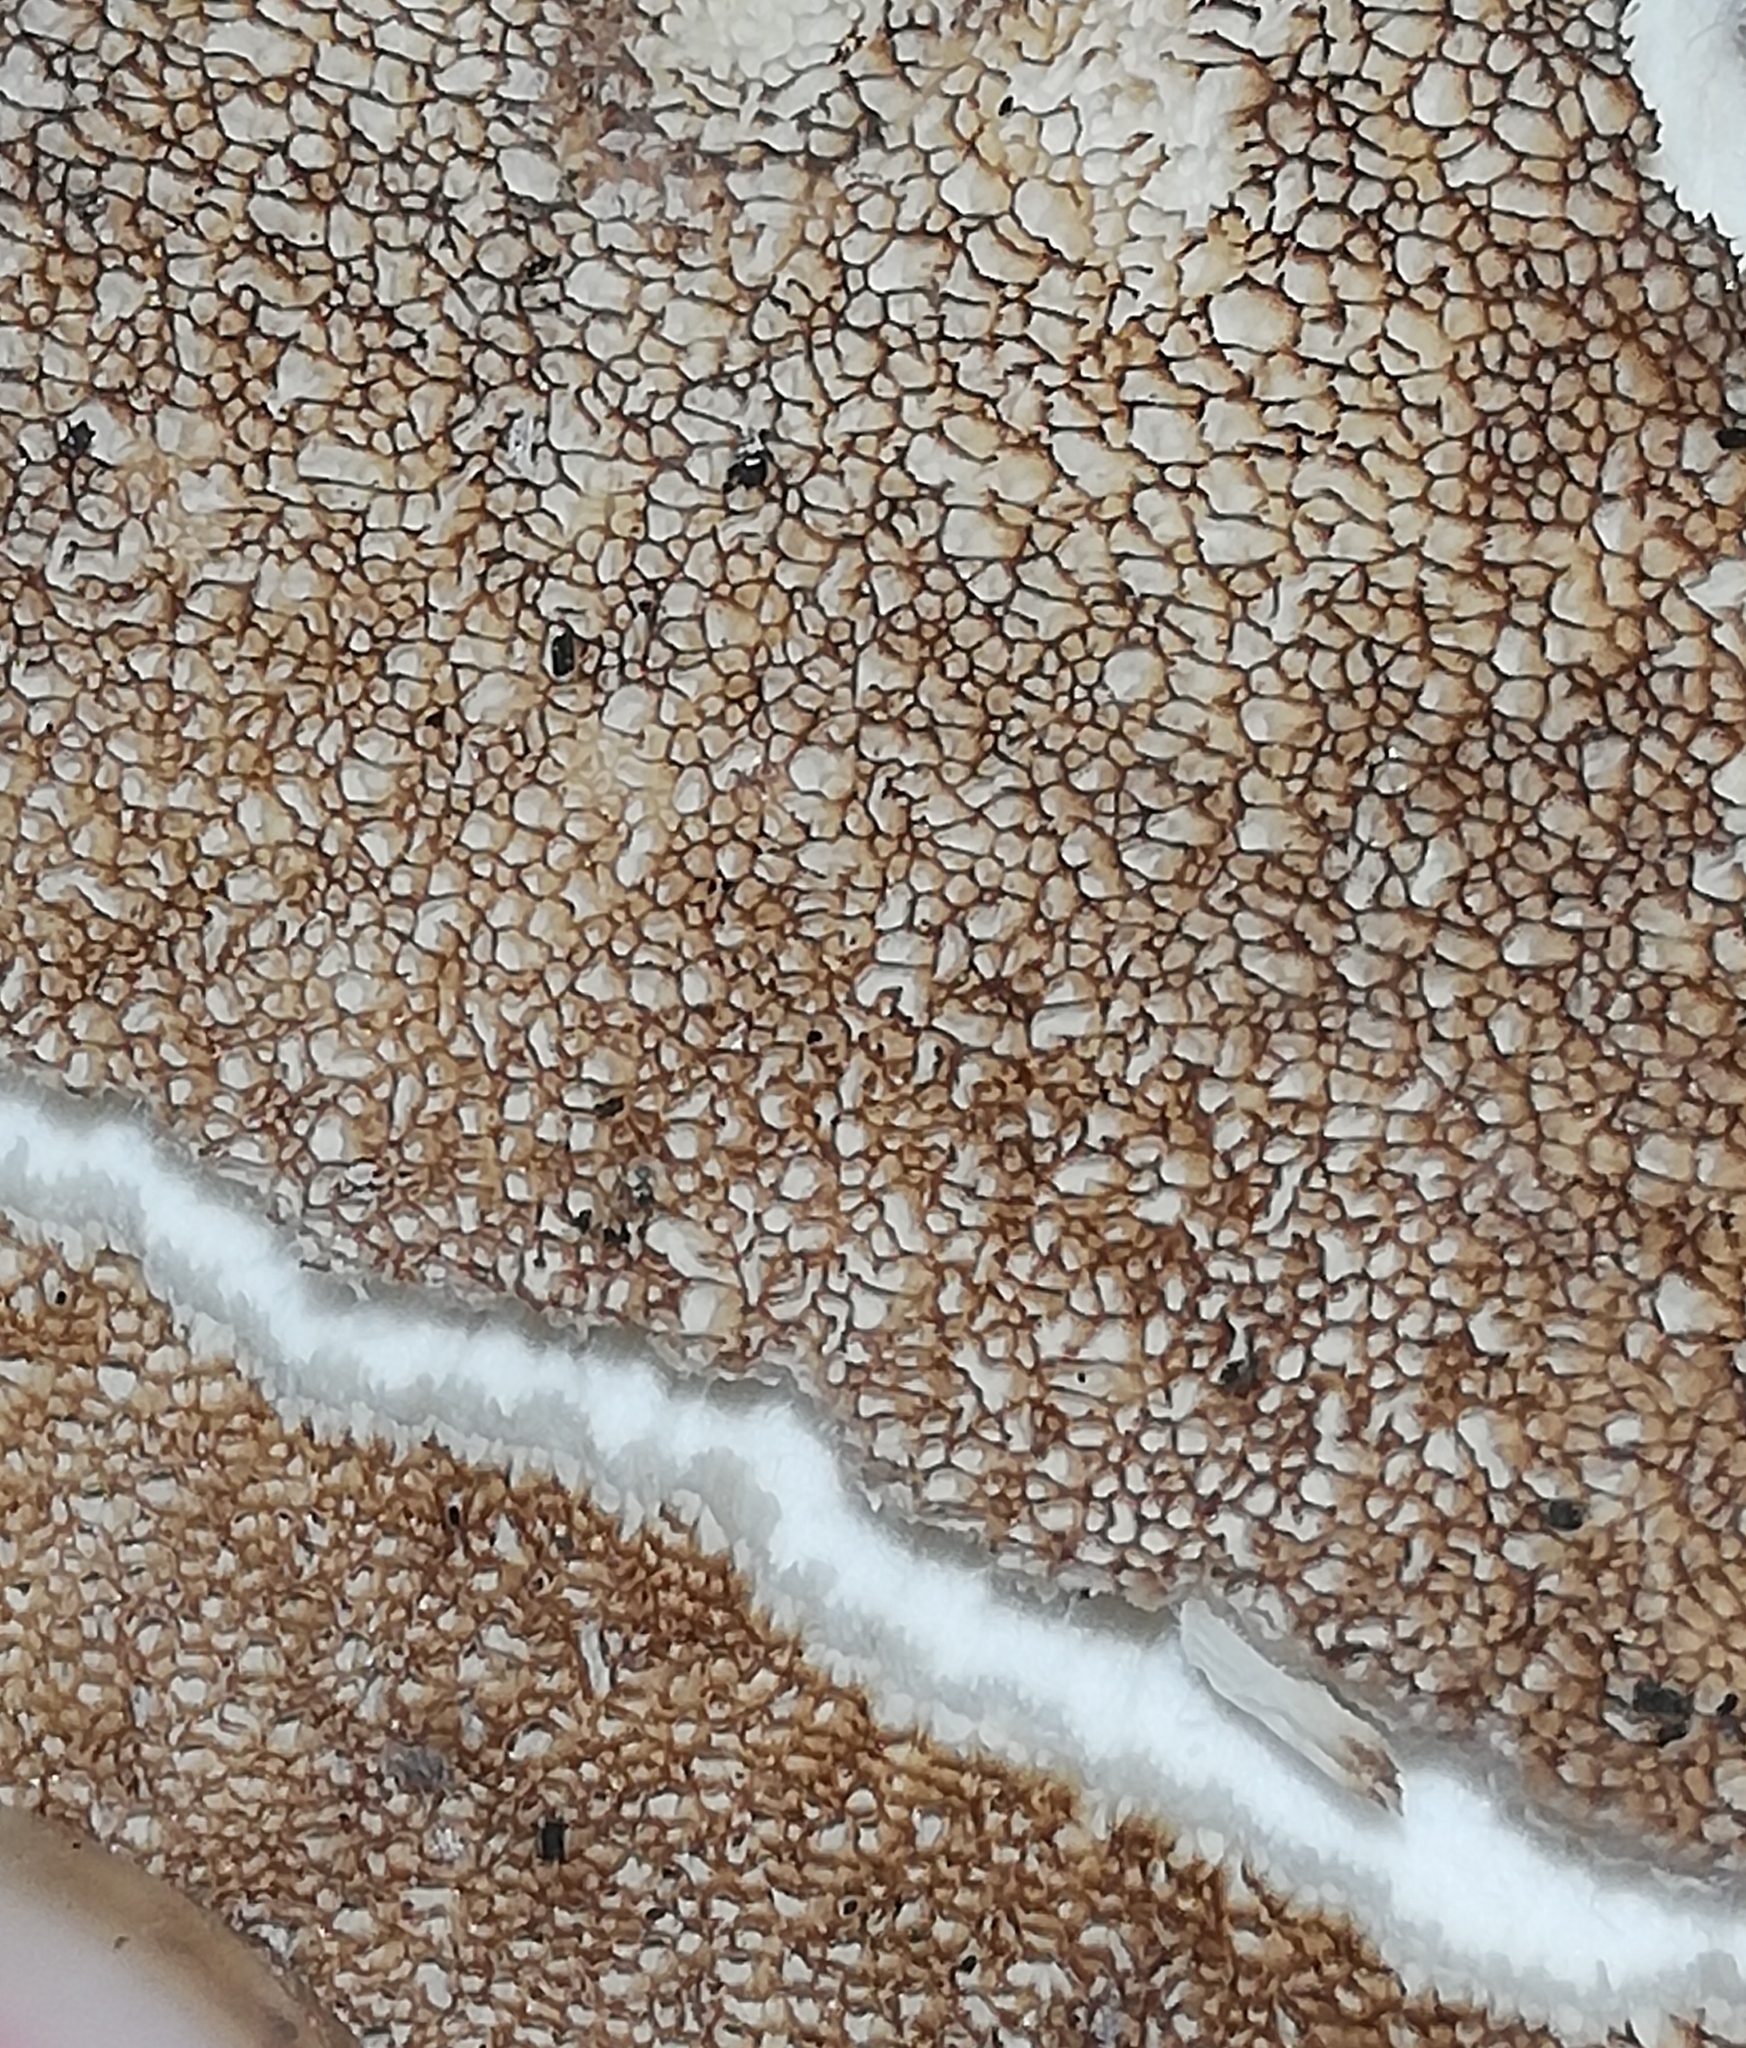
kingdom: Fungi
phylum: Basidiomycota
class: Agaricomycetes
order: Polyporales
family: Meripilaceae
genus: Meripilus
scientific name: Meripilus giganteus
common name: Giant polypore
